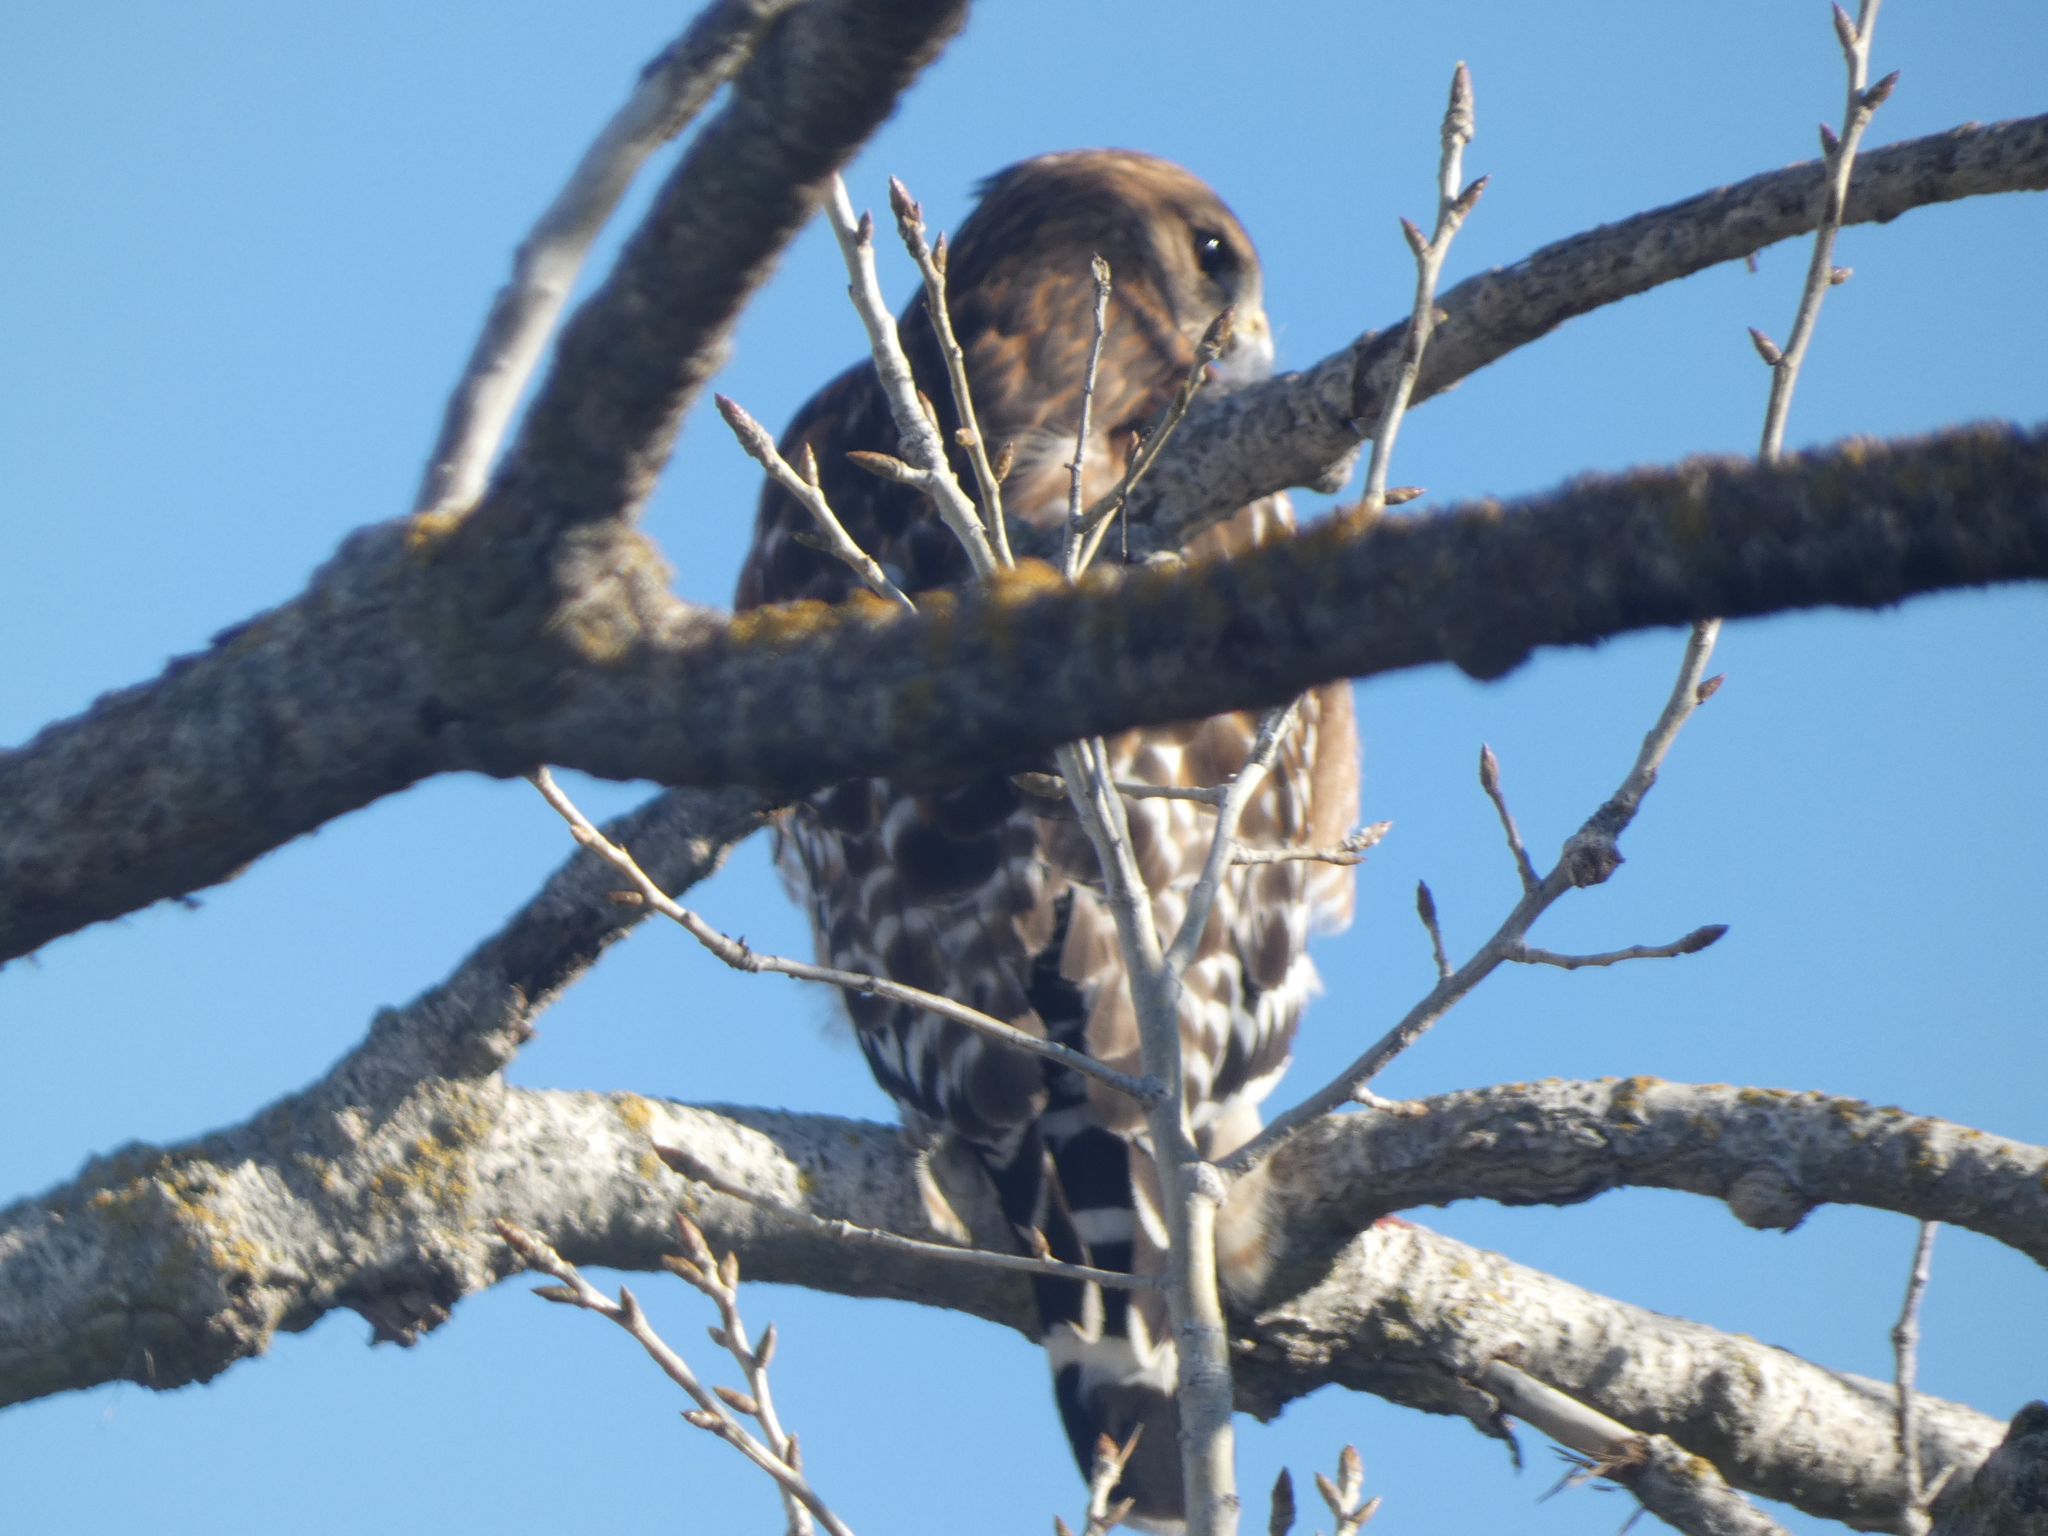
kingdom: Animalia
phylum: Chordata
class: Aves
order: Accipitriformes
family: Accipitridae
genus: Buteo
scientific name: Buteo lineatus
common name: Red-shouldered hawk
